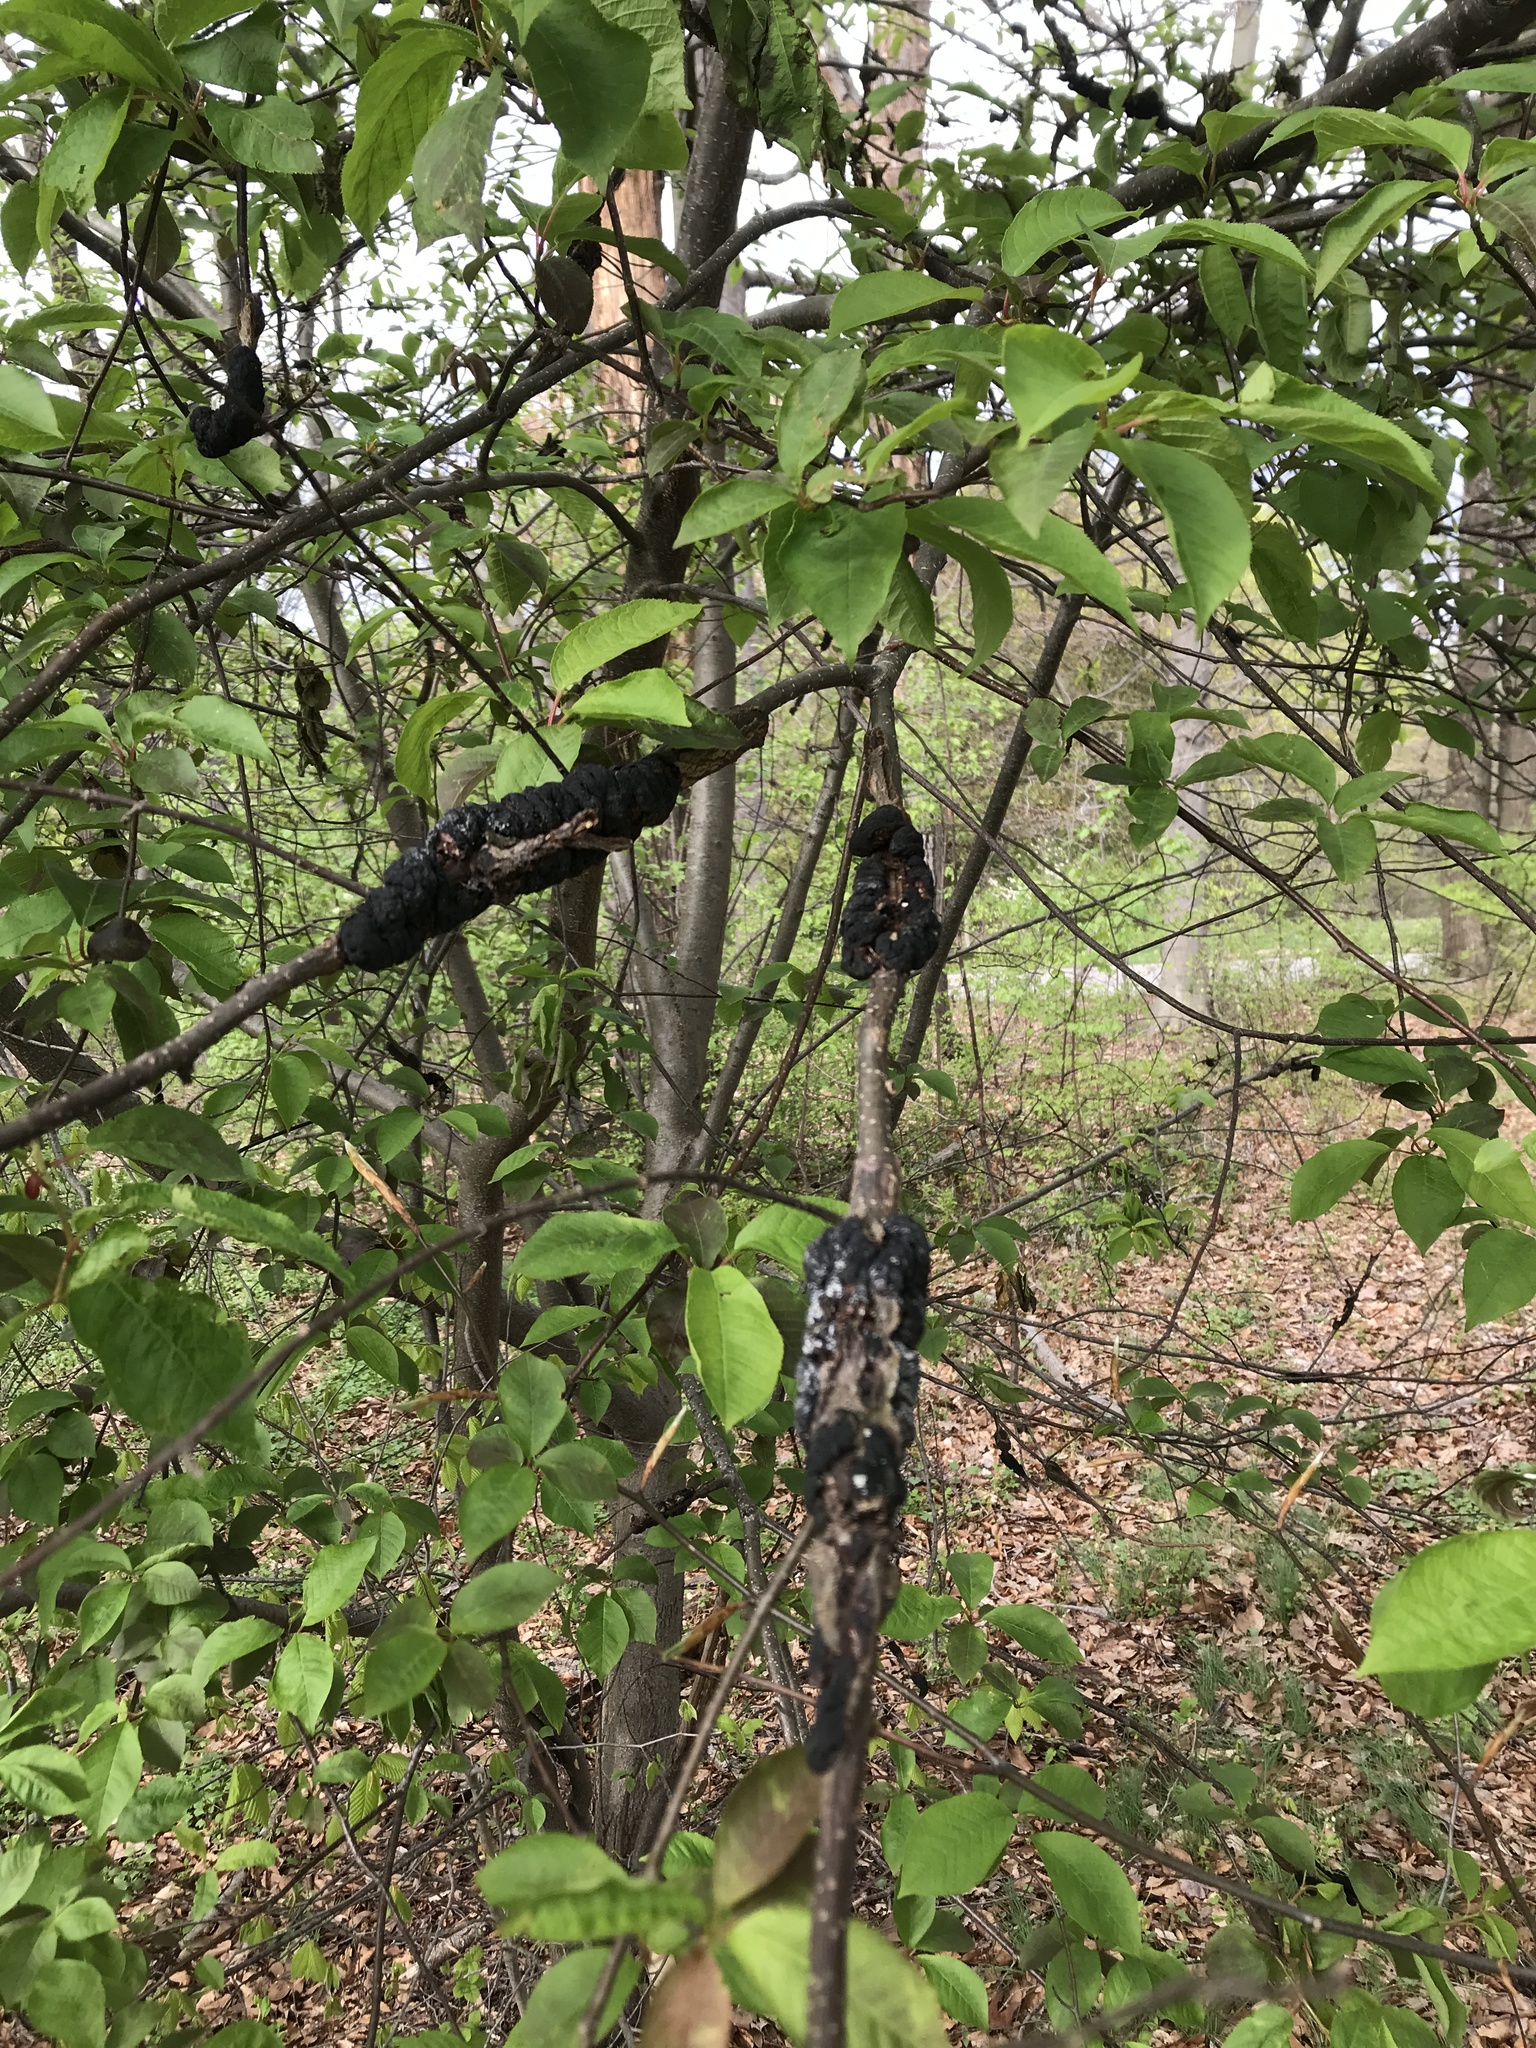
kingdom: Fungi
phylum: Ascomycota
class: Dothideomycetes
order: Venturiales
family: Venturiaceae
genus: Apiosporina
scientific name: Apiosporina morbosa
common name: Black knot
